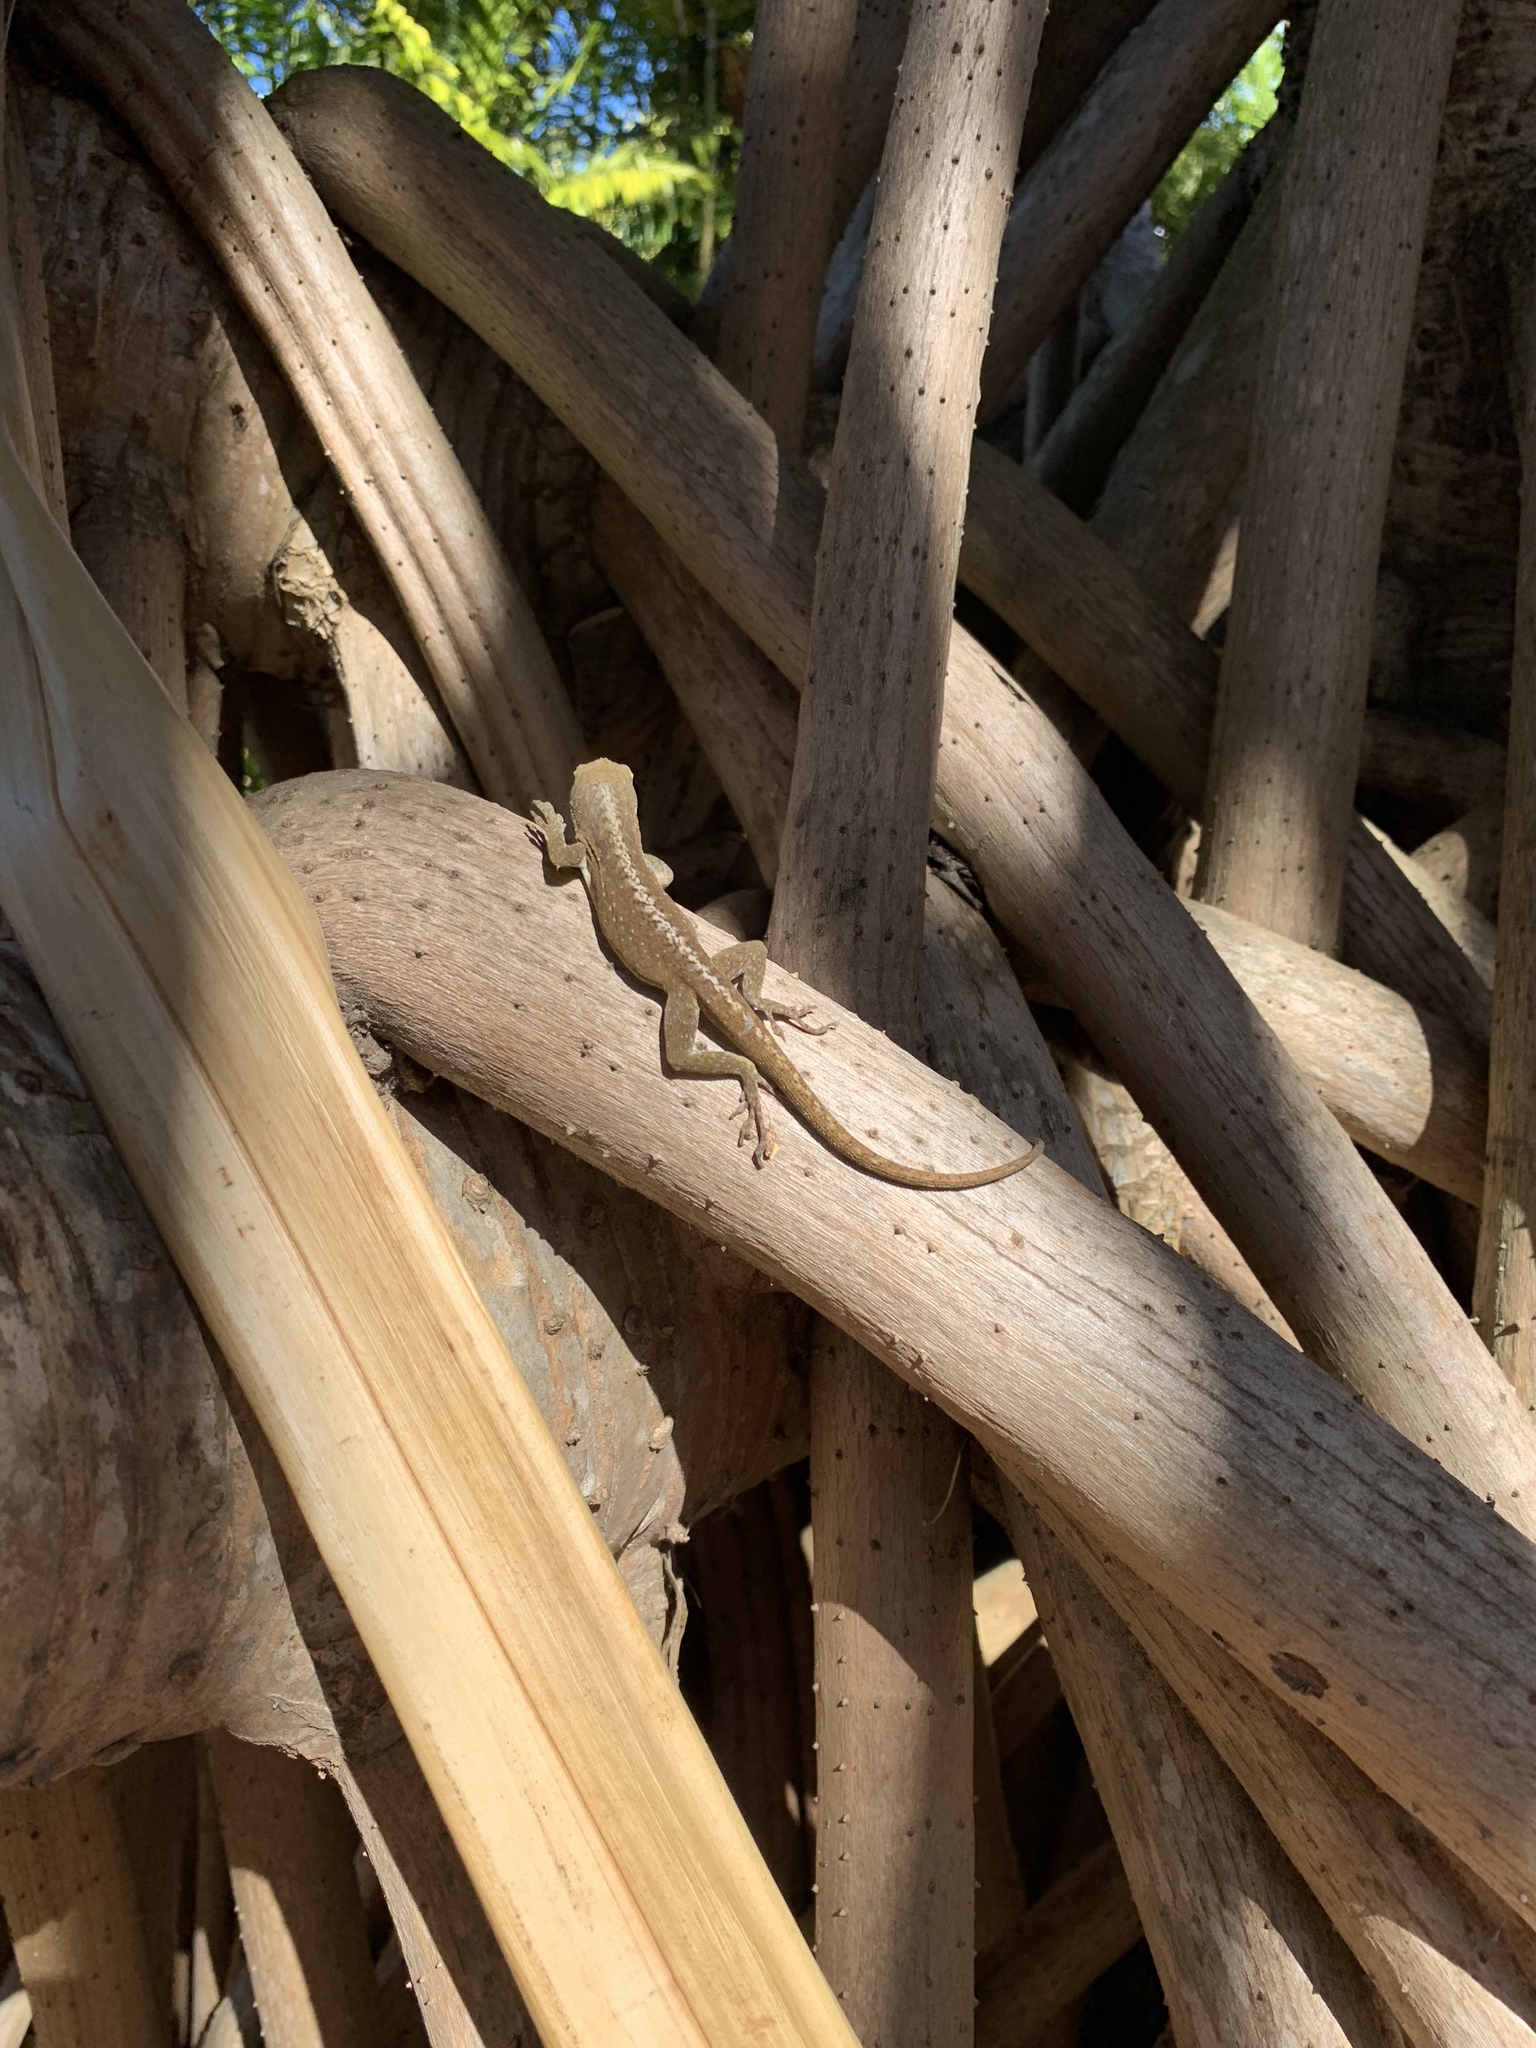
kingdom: Animalia
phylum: Chordata
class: Squamata
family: Dactyloidae
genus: Anolis
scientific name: Anolis carolinensis
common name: Green anole
